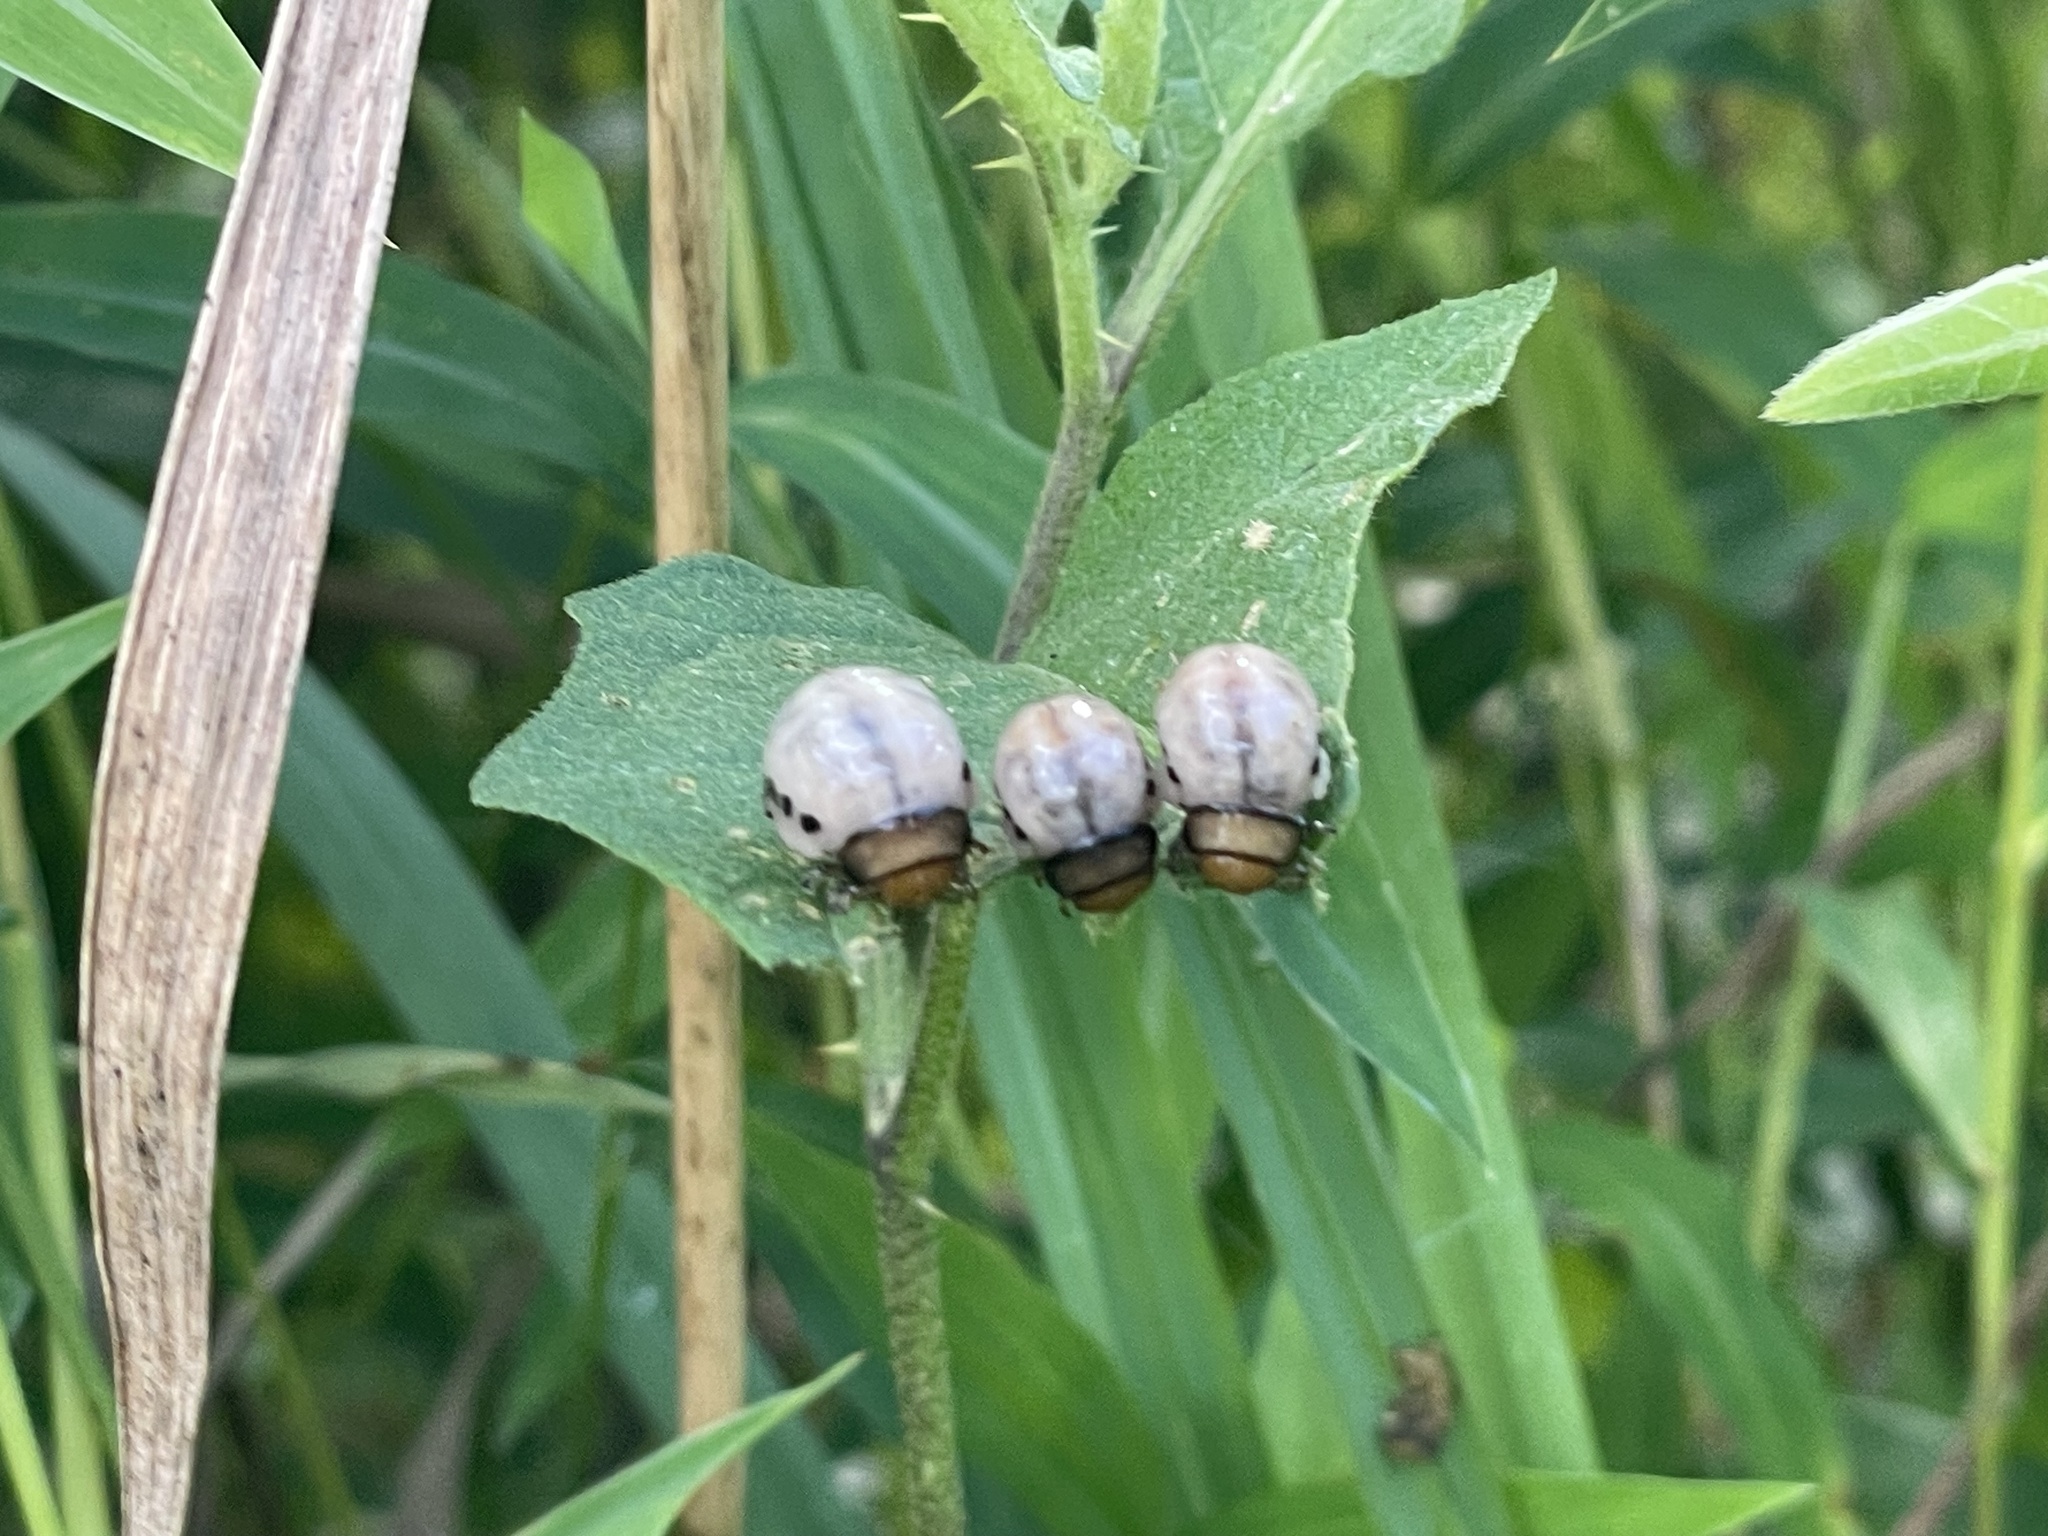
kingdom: Animalia
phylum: Arthropoda
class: Insecta
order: Coleoptera
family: Chrysomelidae
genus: Leptinotarsa
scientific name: Leptinotarsa juncta
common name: False potato beetle
